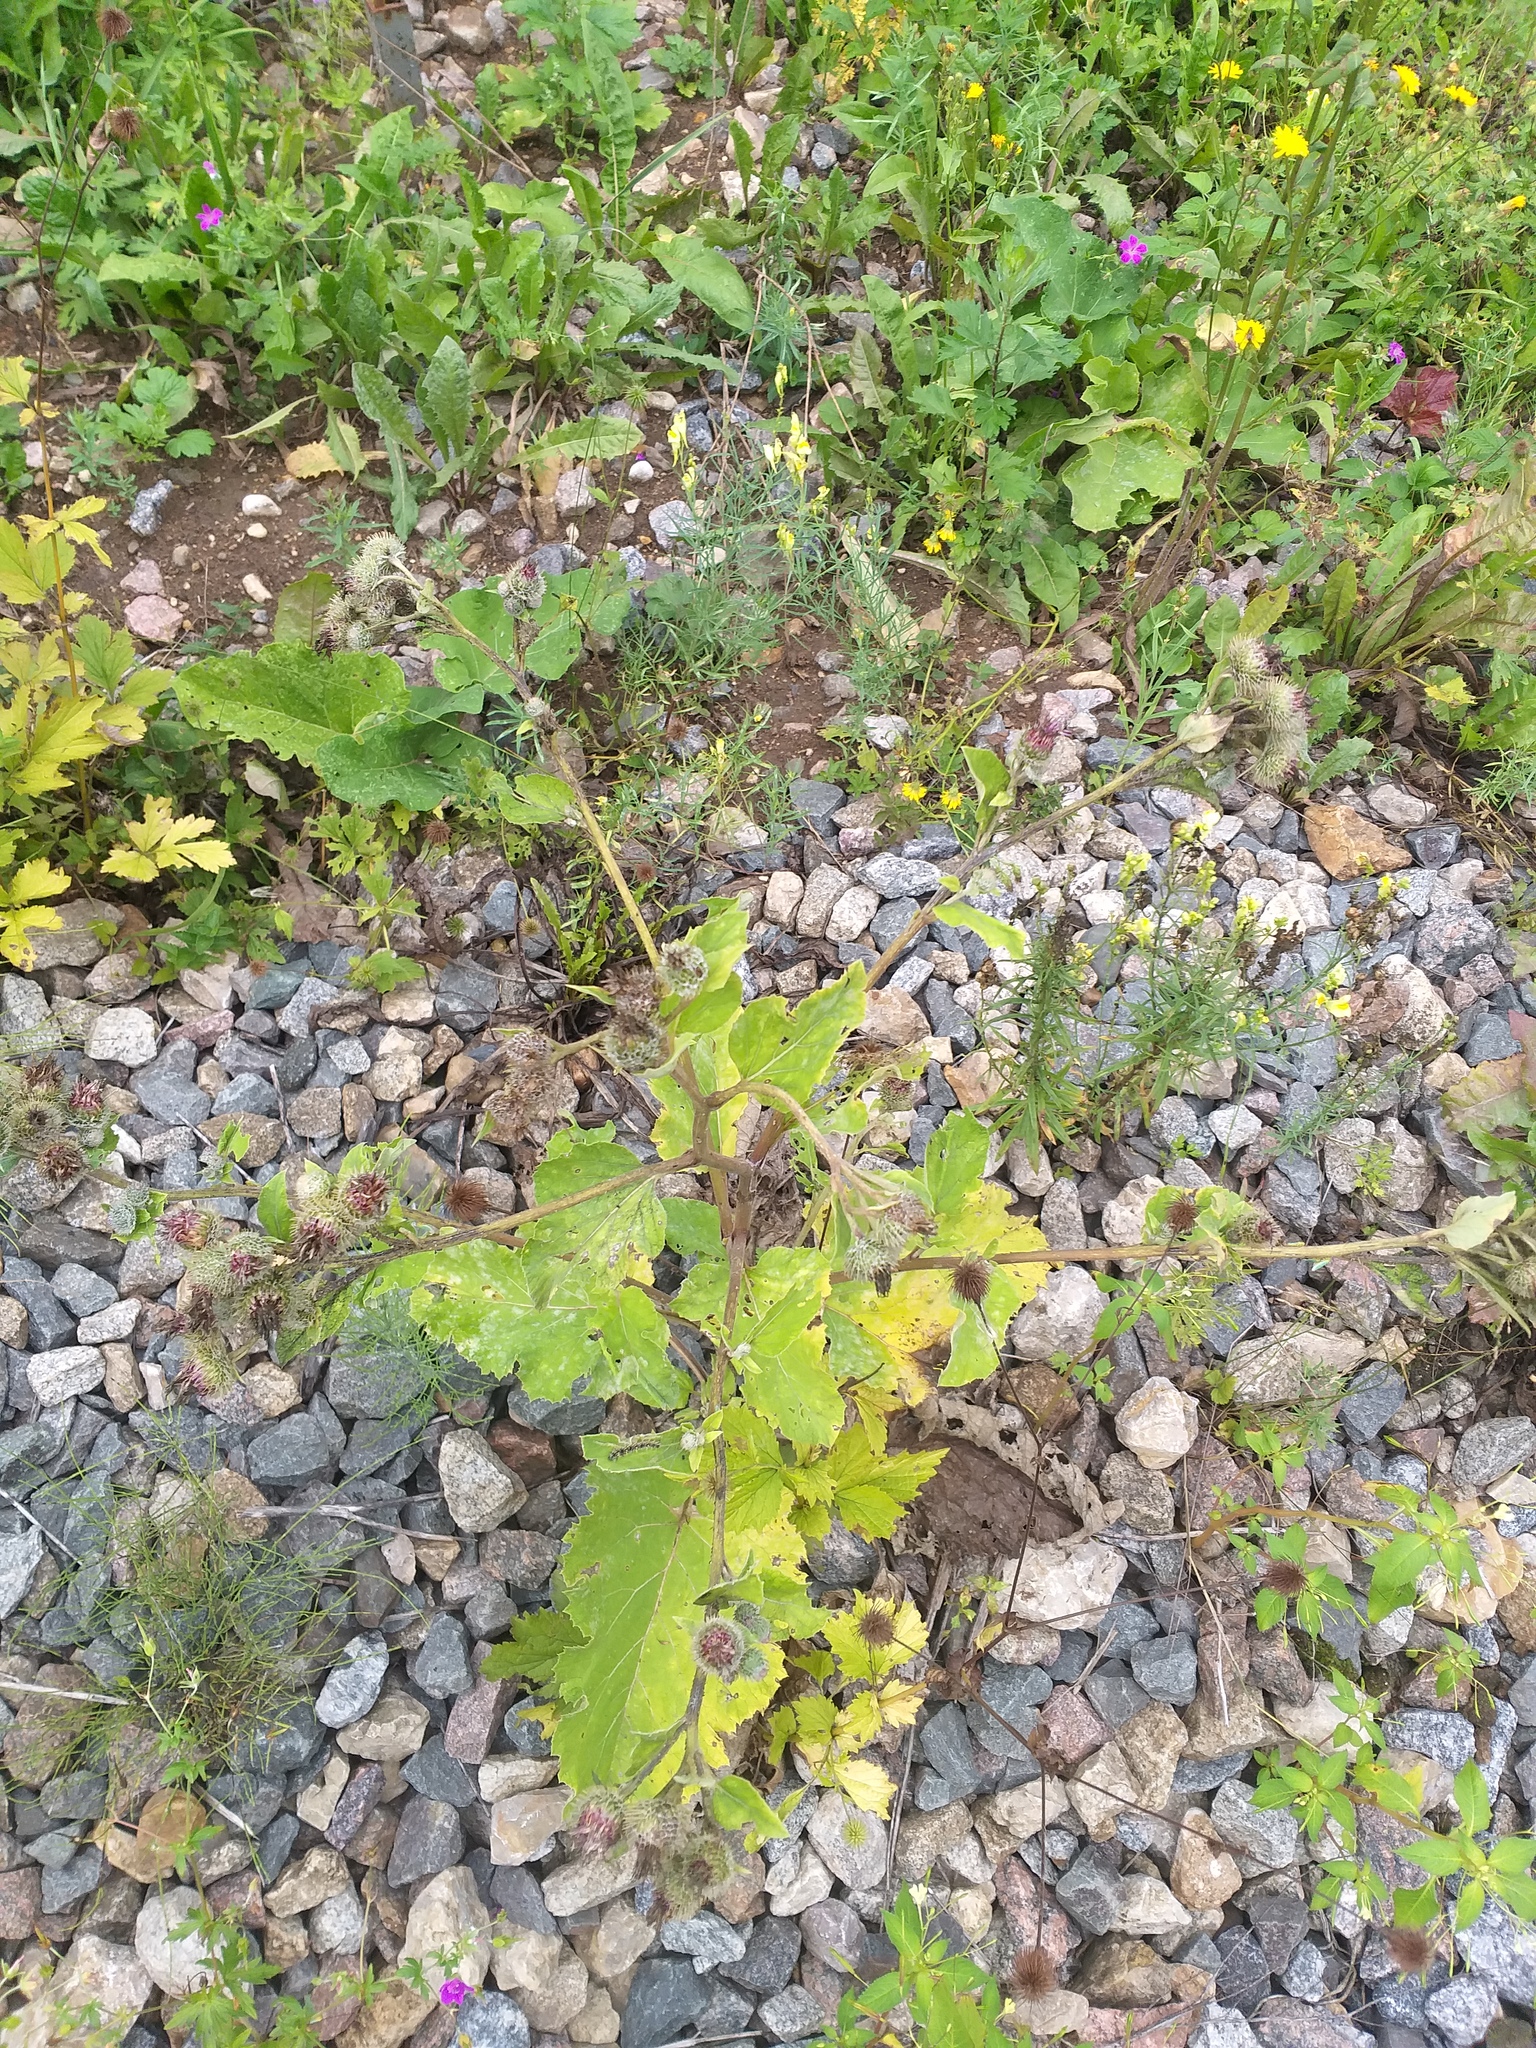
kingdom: Plantae
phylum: Tracheophyta
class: Magnoliopsida
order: Asterales
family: Asteraceae
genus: Arctium
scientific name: Arctium tomentosum
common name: Woolly burdock
